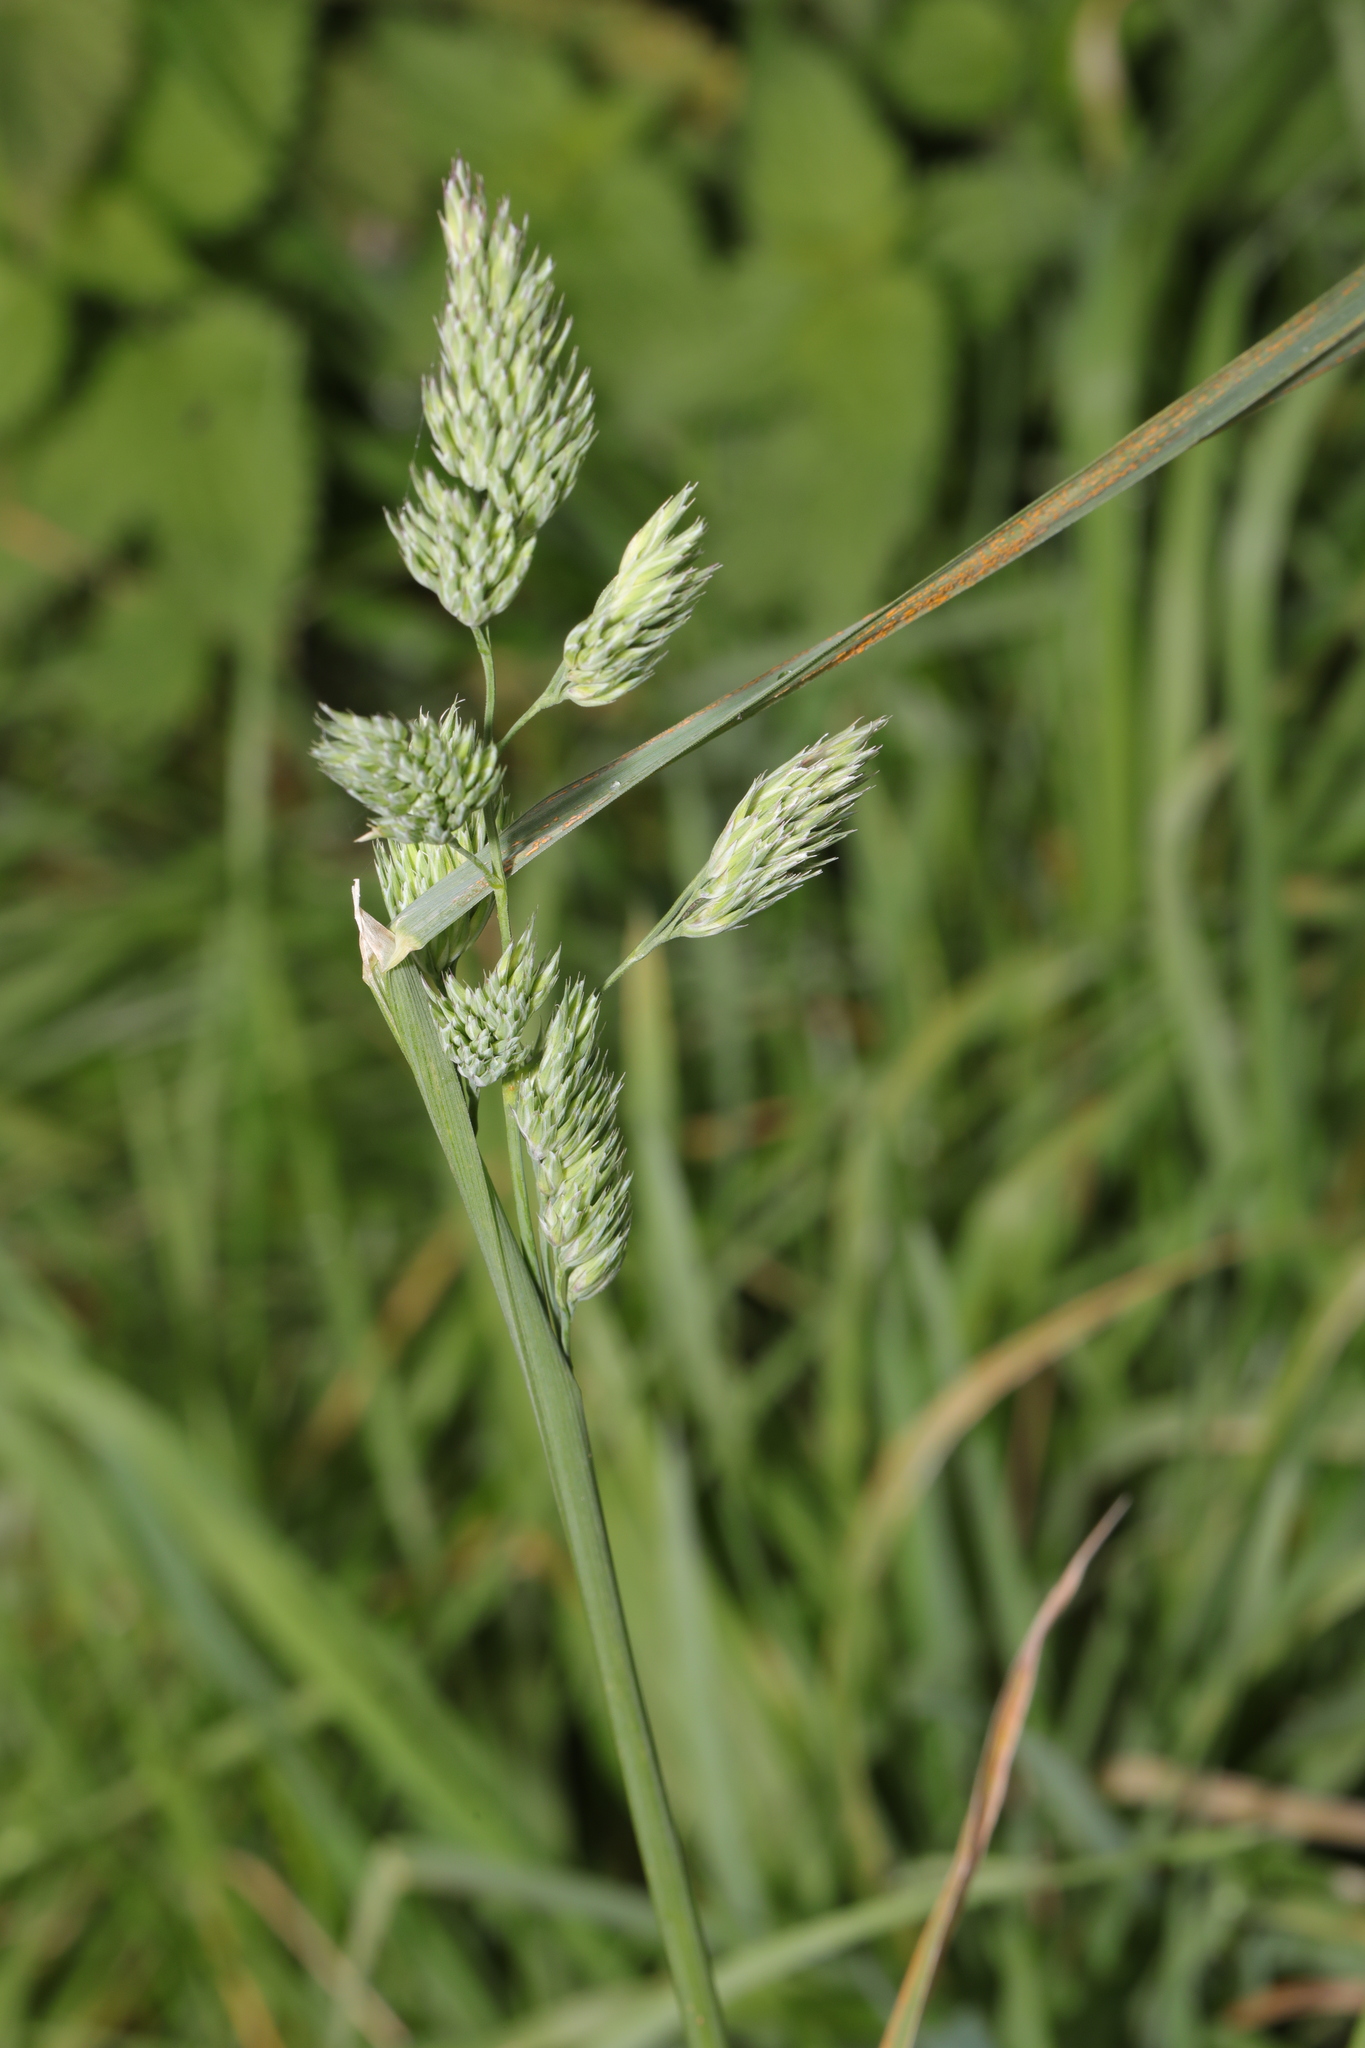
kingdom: Plantae
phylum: Tracheophyta
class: Liliopsida
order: Poales
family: Poaceae
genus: Dactylis
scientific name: Dactylis glomerata
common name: Orchardgrass
